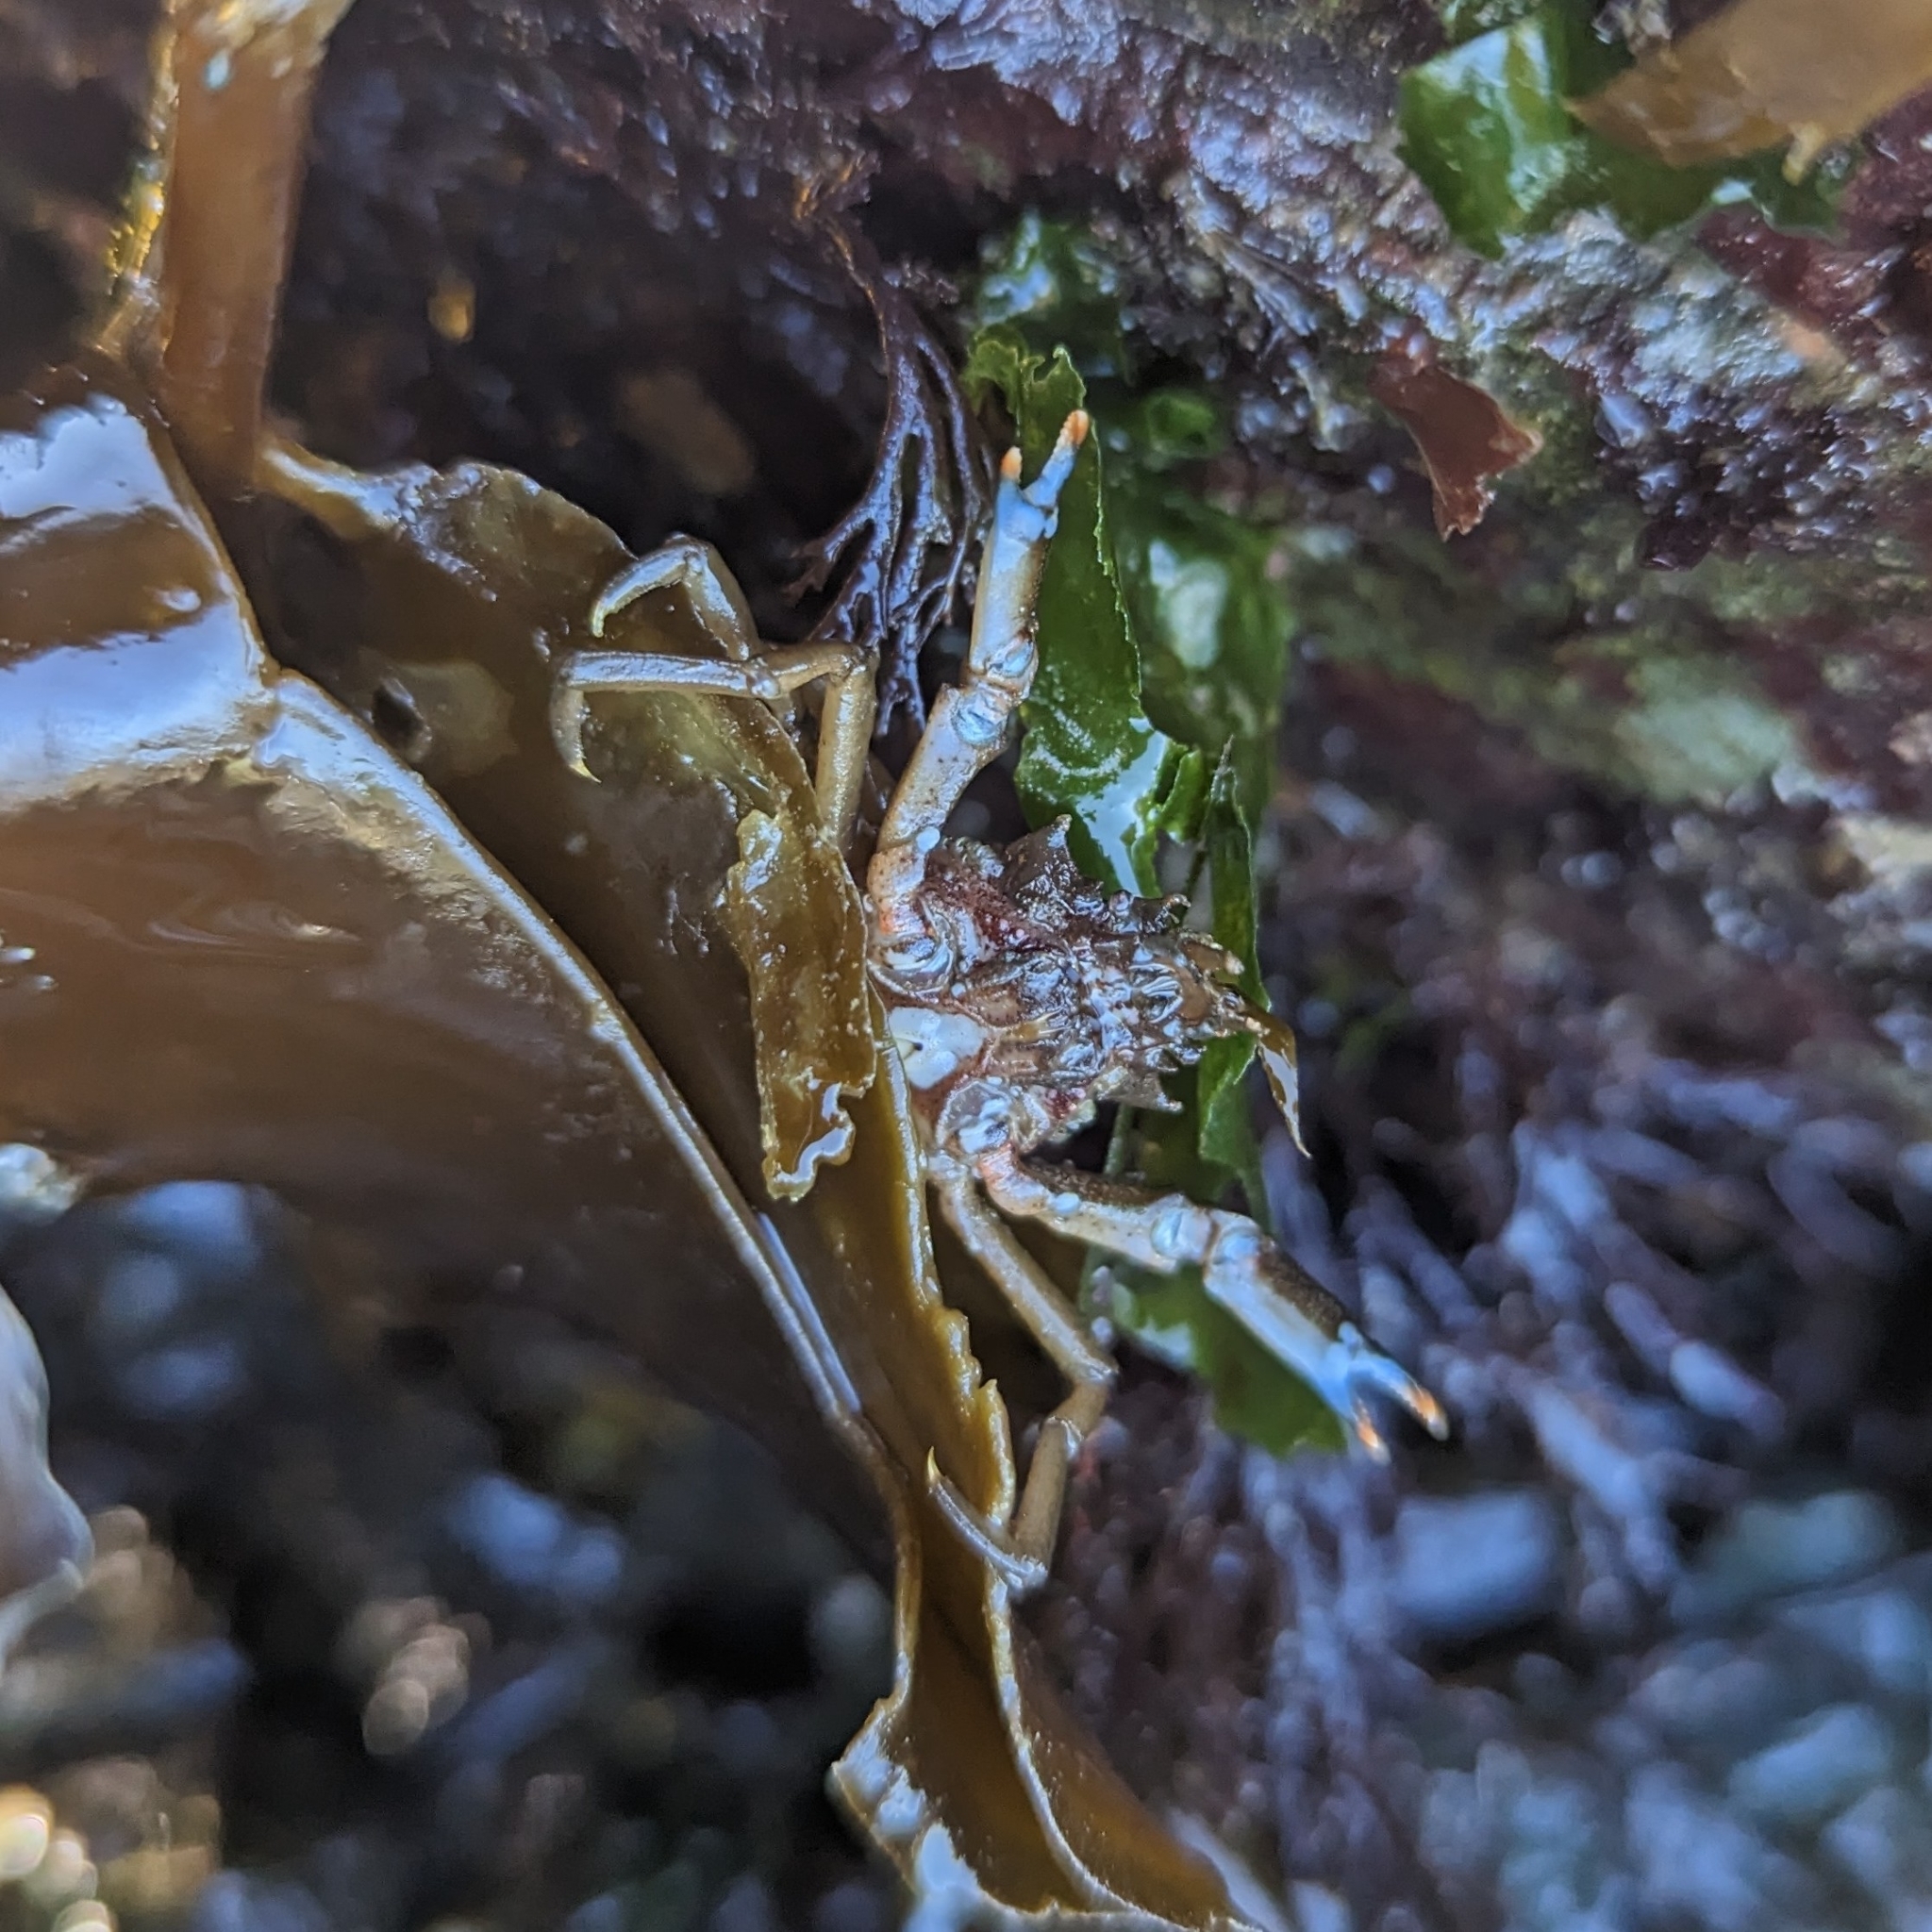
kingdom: Animalia
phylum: Arthropoda
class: Malacostraca
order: Decapoda
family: Epialtidae
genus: Pugettia
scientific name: Pugettia gracilis
